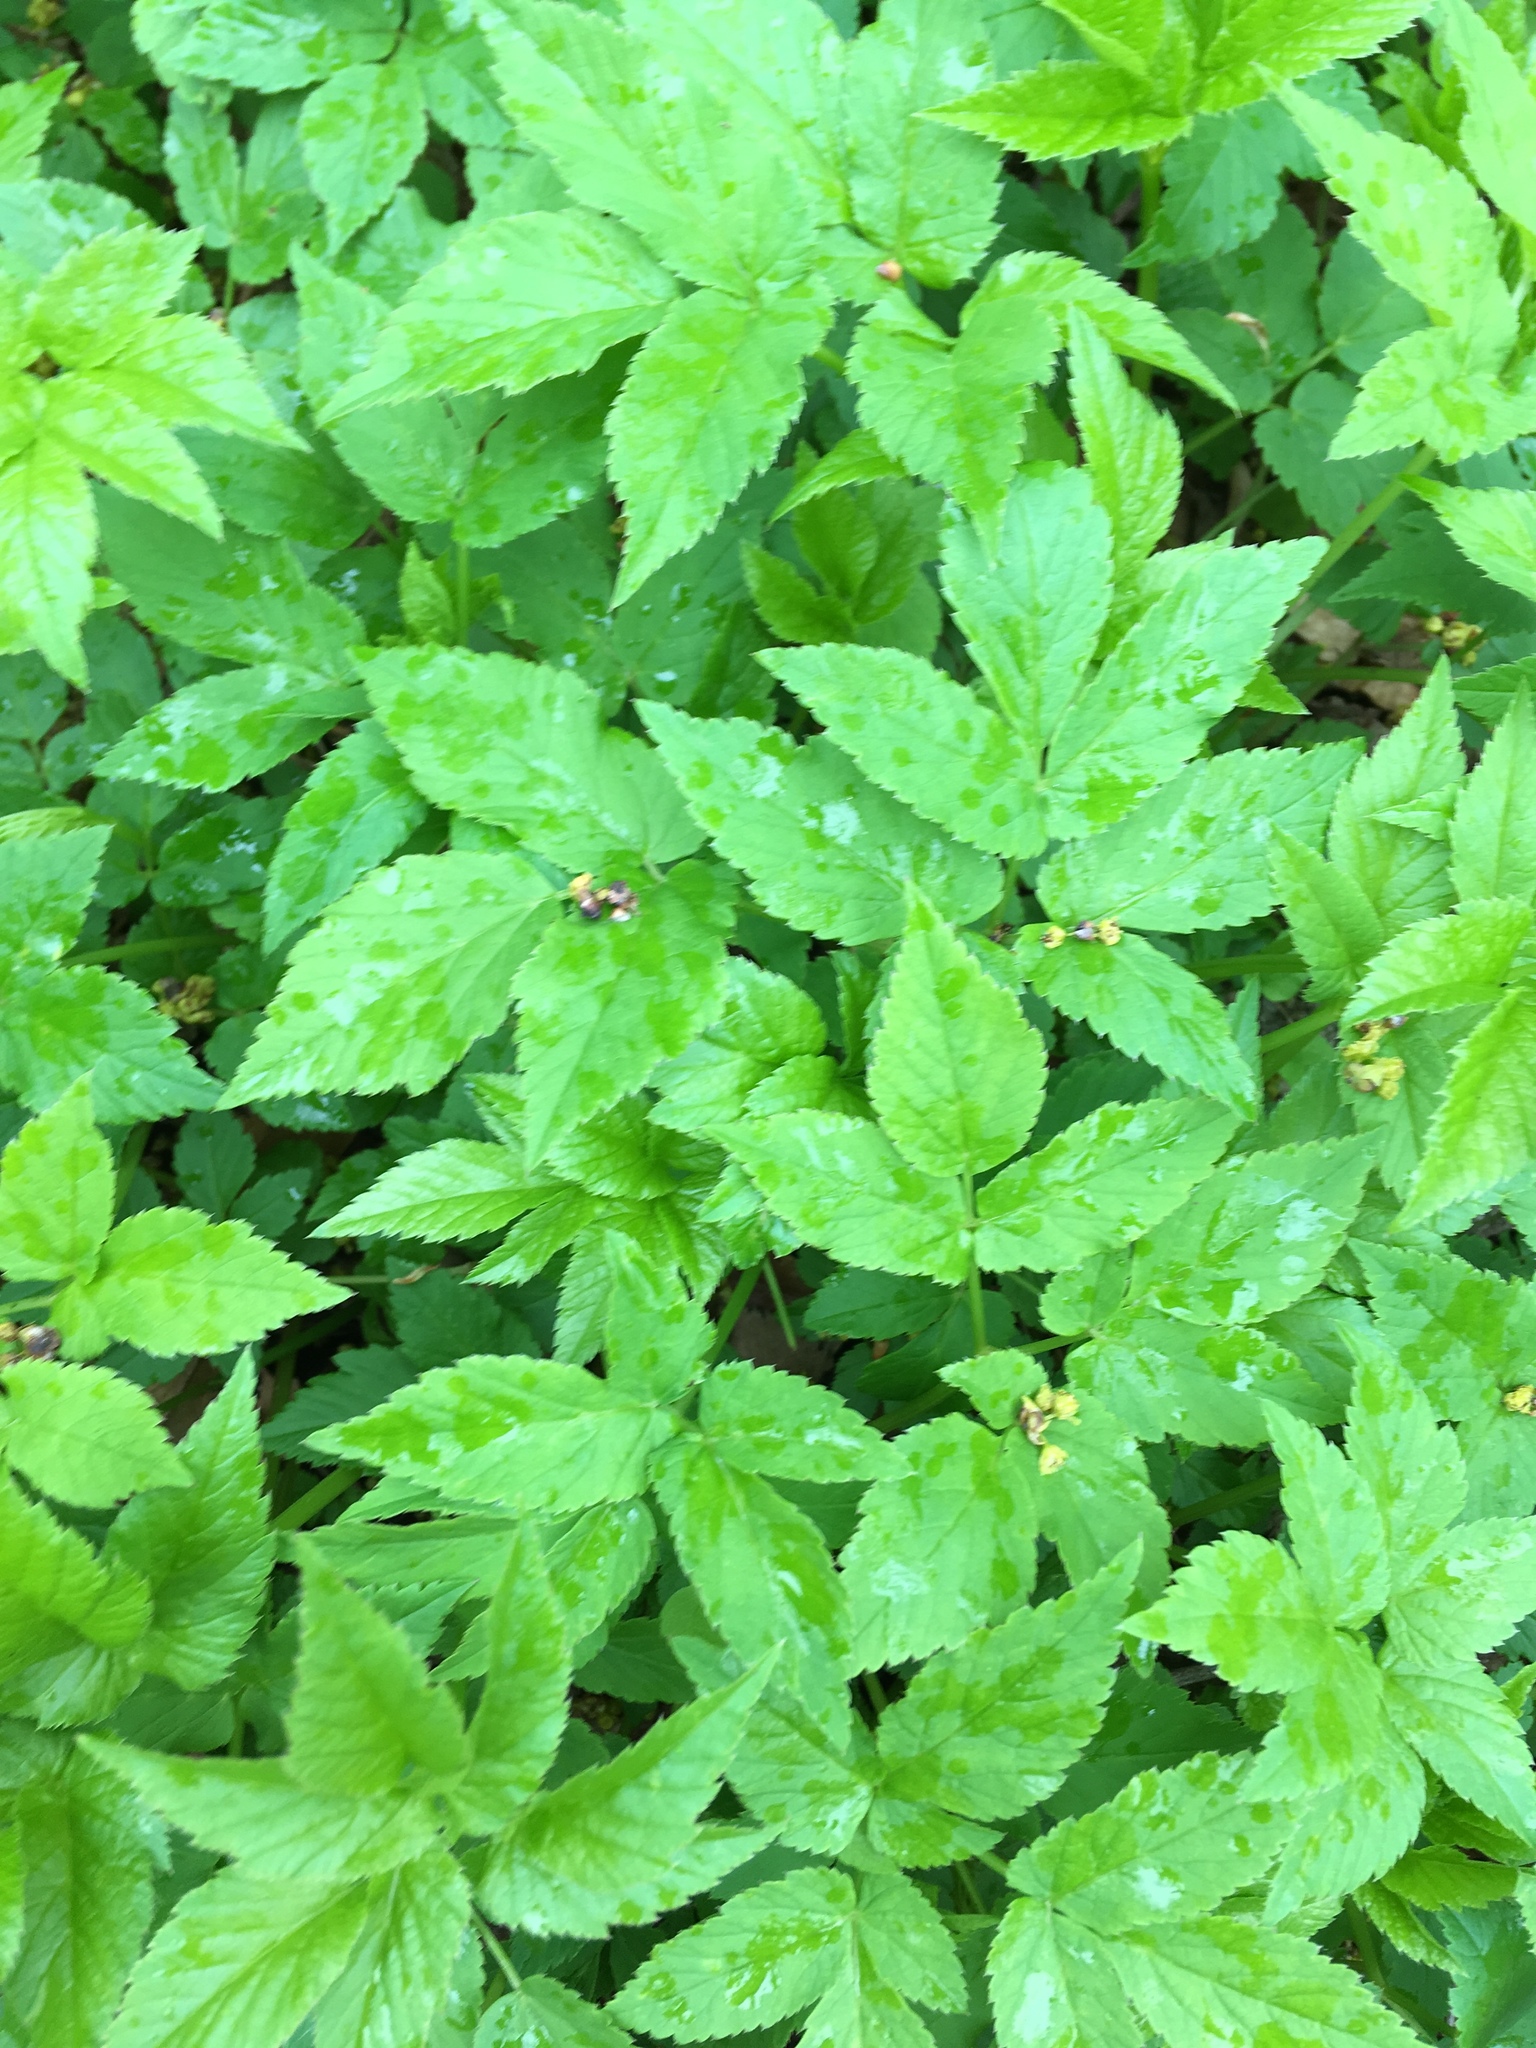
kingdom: Plantae
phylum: Tracheophyta
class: Magnoliopsida
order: Apiales
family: Apiaceae
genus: Aegopodium
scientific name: Aegopodium podagraria
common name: Ground-elder
